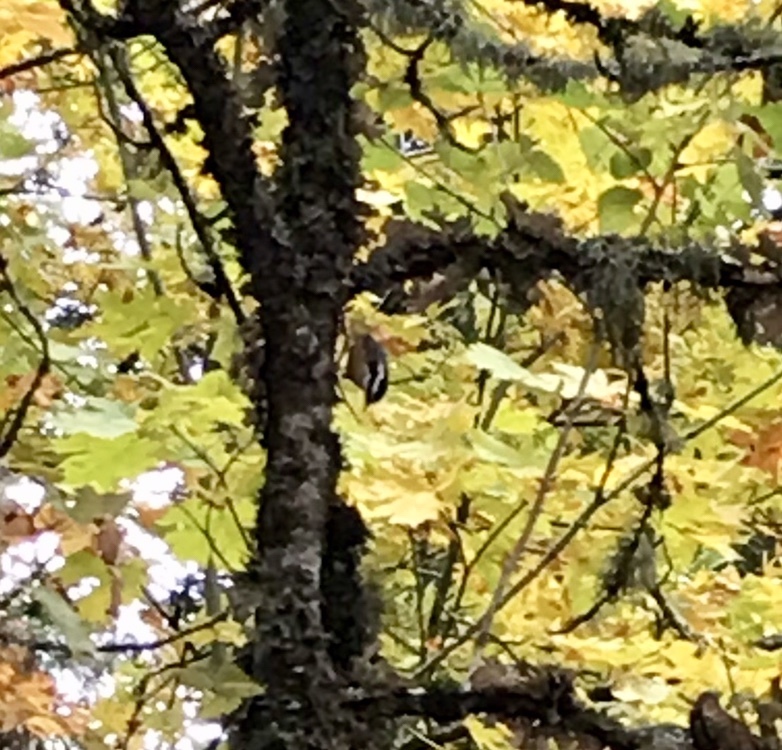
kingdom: Animalia
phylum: Chordata
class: Aves
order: Passeriformes
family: Sittidae
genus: Sitta
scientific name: Sitta canadensis
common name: Red-breasted nuthatch
